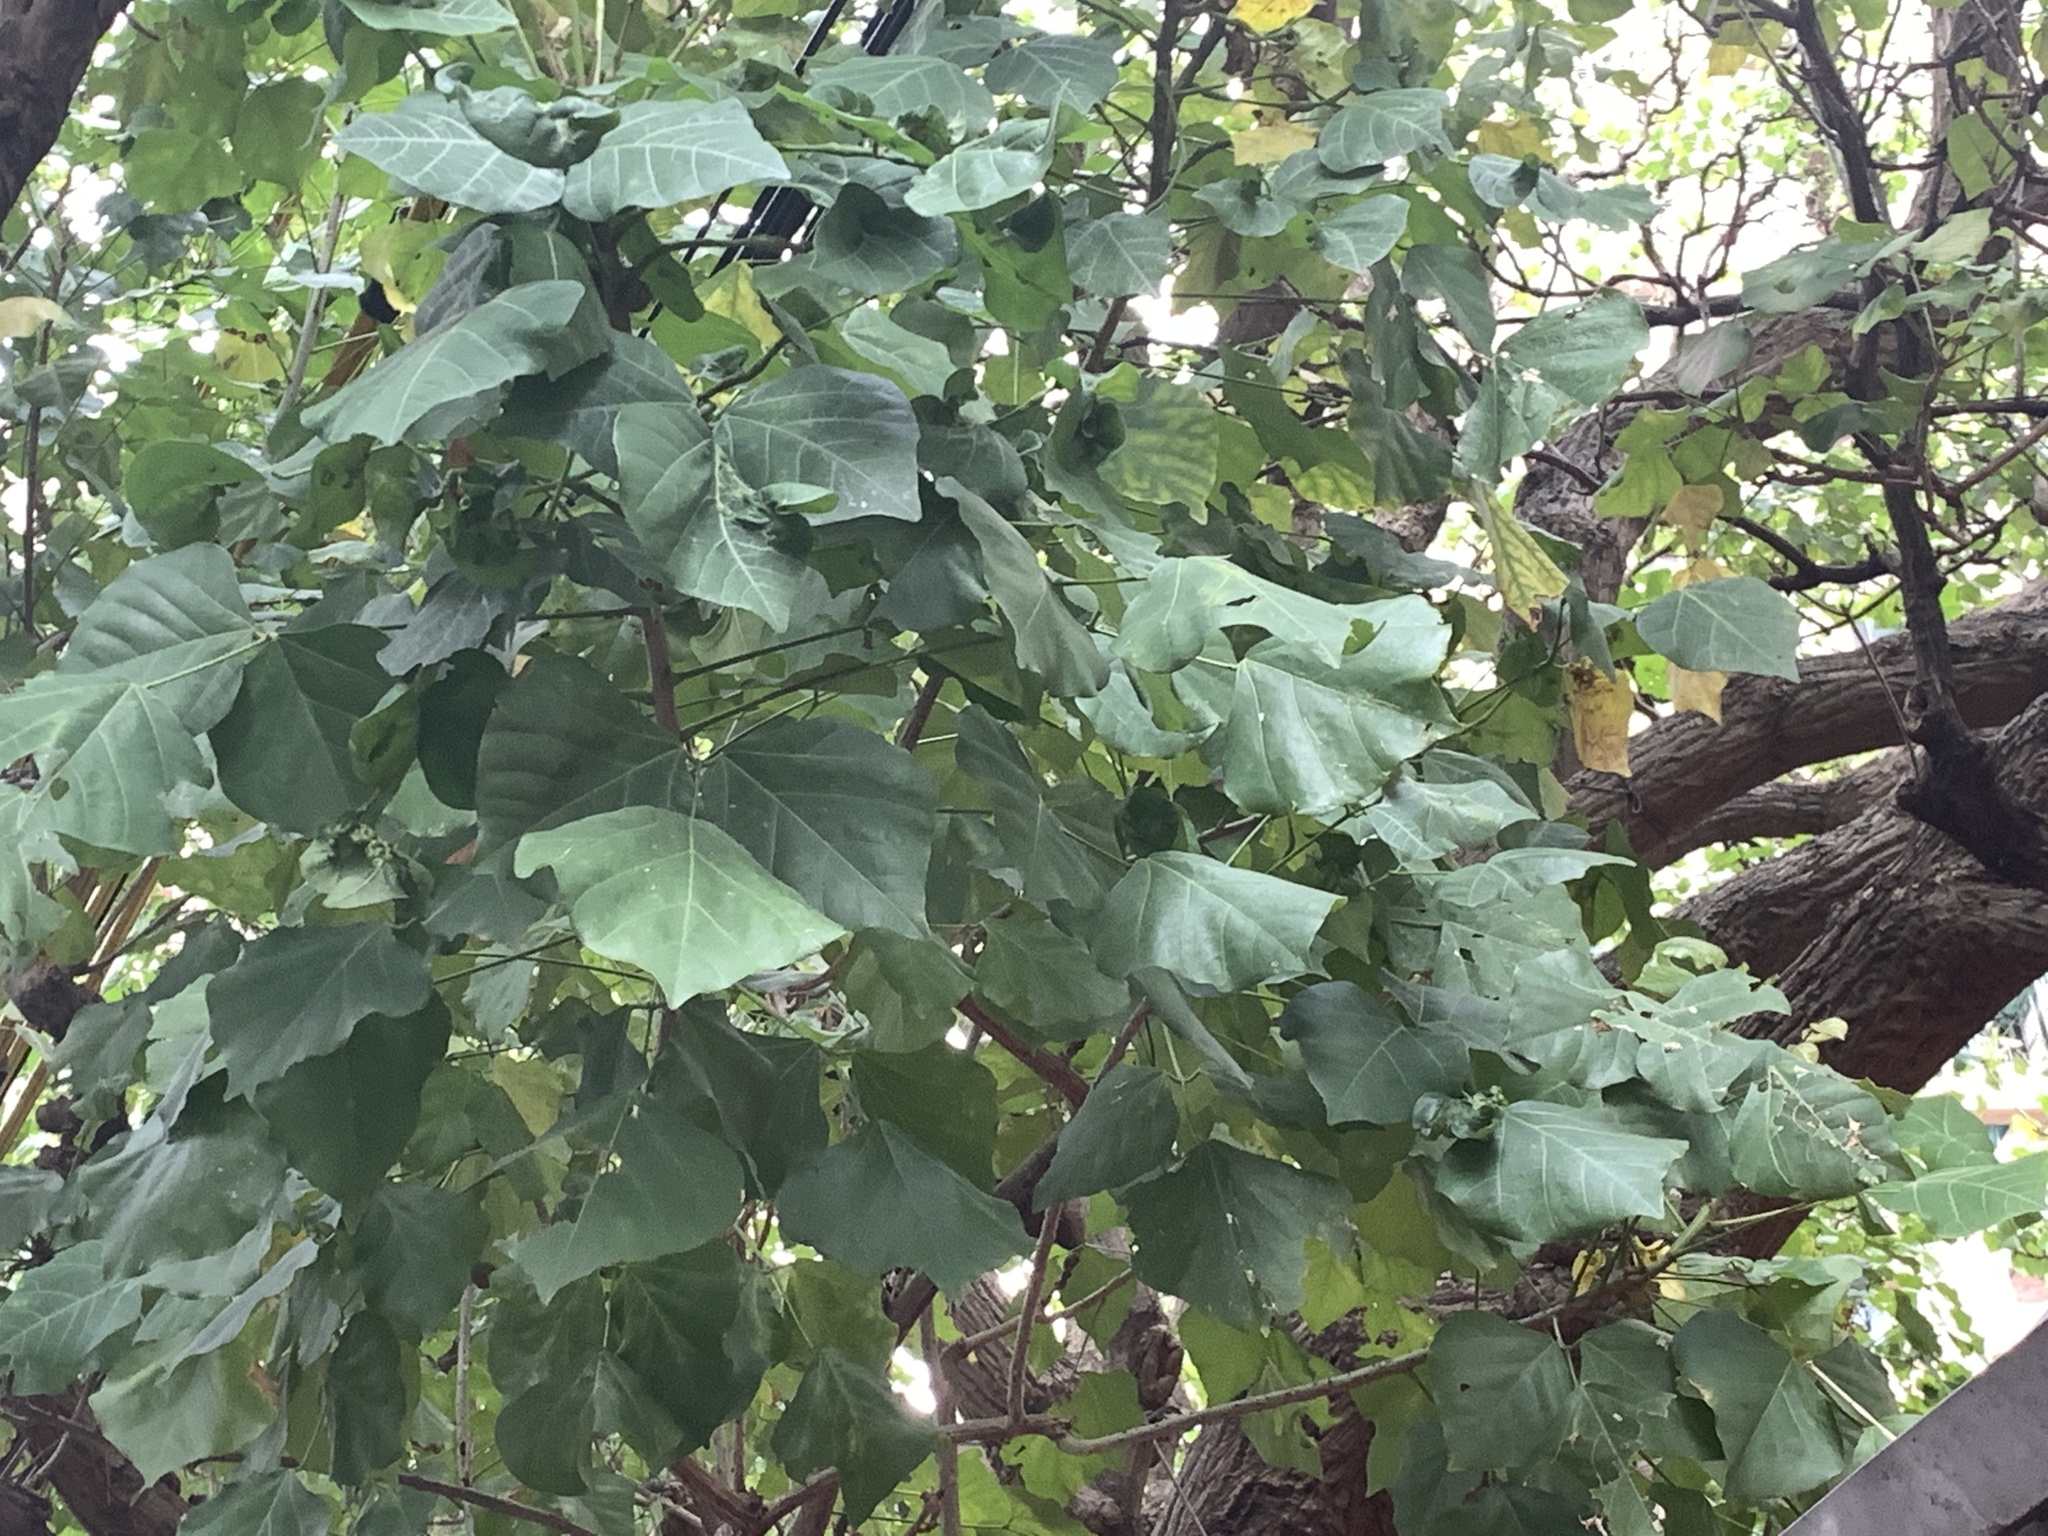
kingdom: Plantae
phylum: Tracheophyta
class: Magnoliopsida
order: Fabales
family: Fabaceae
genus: Erythrina
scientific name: Erythrina variegata
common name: Indian coral tree
